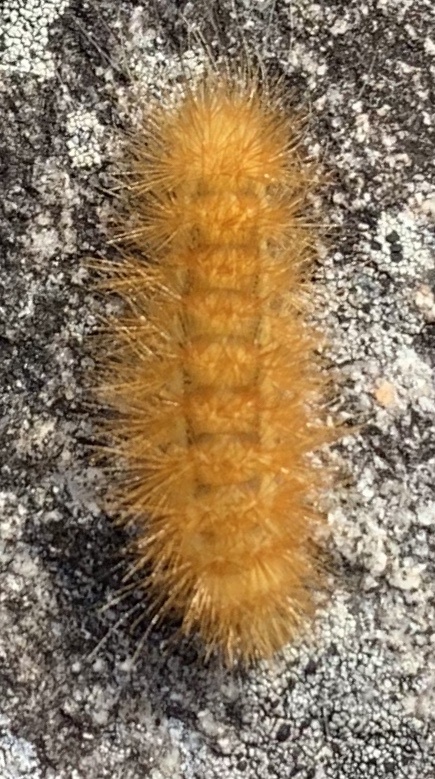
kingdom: Animalia
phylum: Arthropoda
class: Insecta
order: Lepidoptera
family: Erebidae
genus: Spilosoma
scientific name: Spilosoma virginica
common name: Virginia tiger moth
